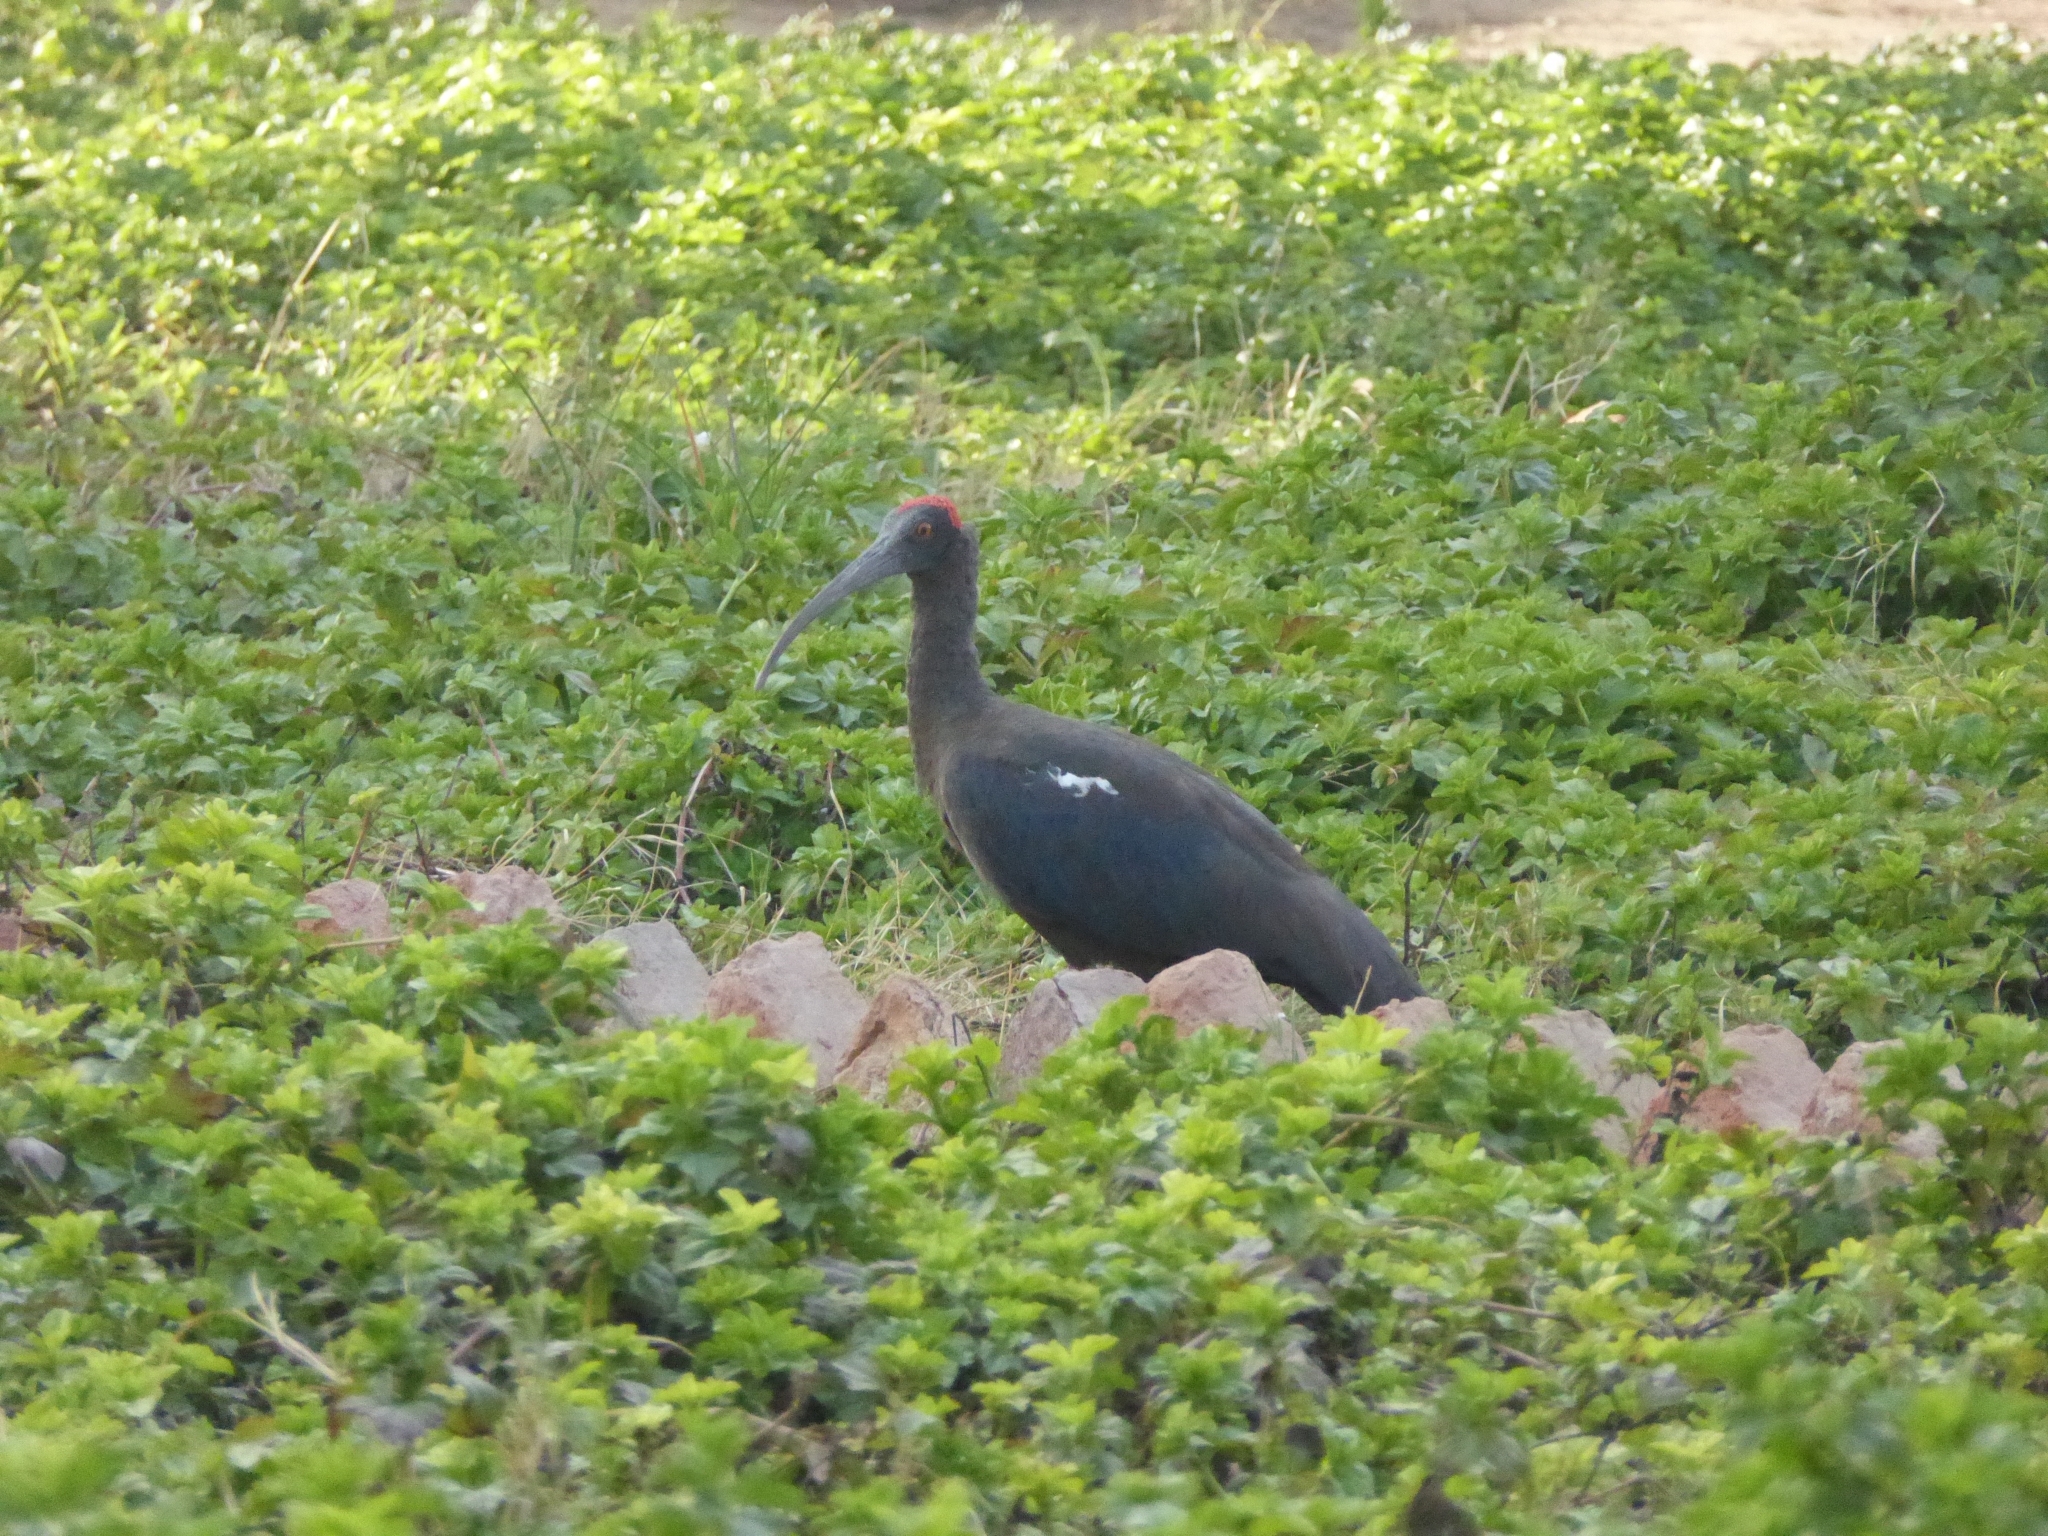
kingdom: Animalia
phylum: Chordata
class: Aves
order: Pelecaniformes
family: Threskiornithidae
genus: Pseudibis
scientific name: Pseudibis papillosa
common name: Red-naped ibis
